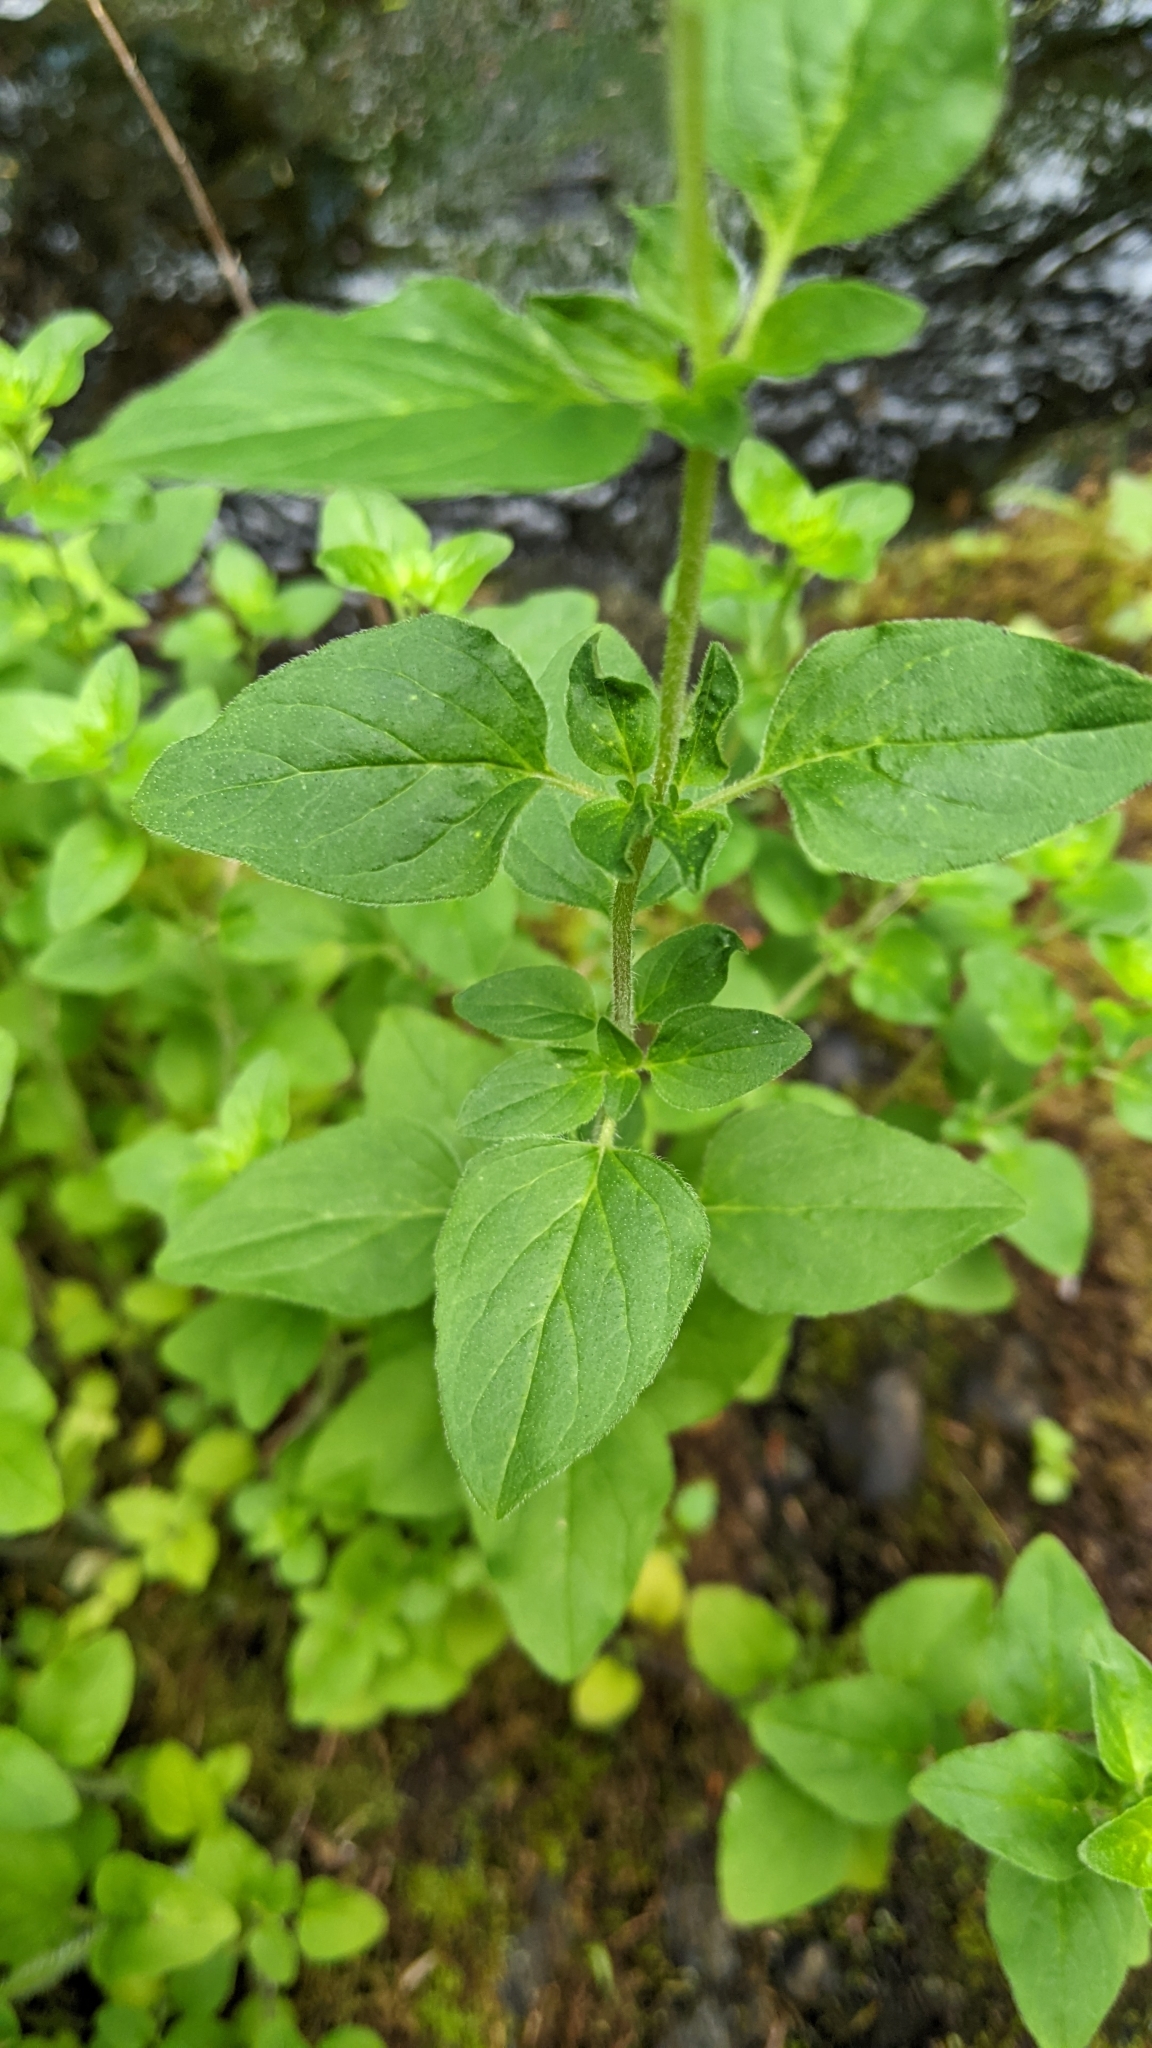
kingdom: Plantae
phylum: Tracheophyta
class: Magnoliopsida
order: Lamiales
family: Lamiaceae
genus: Origanum
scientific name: Origanum vulgare
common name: Wild marjoram
